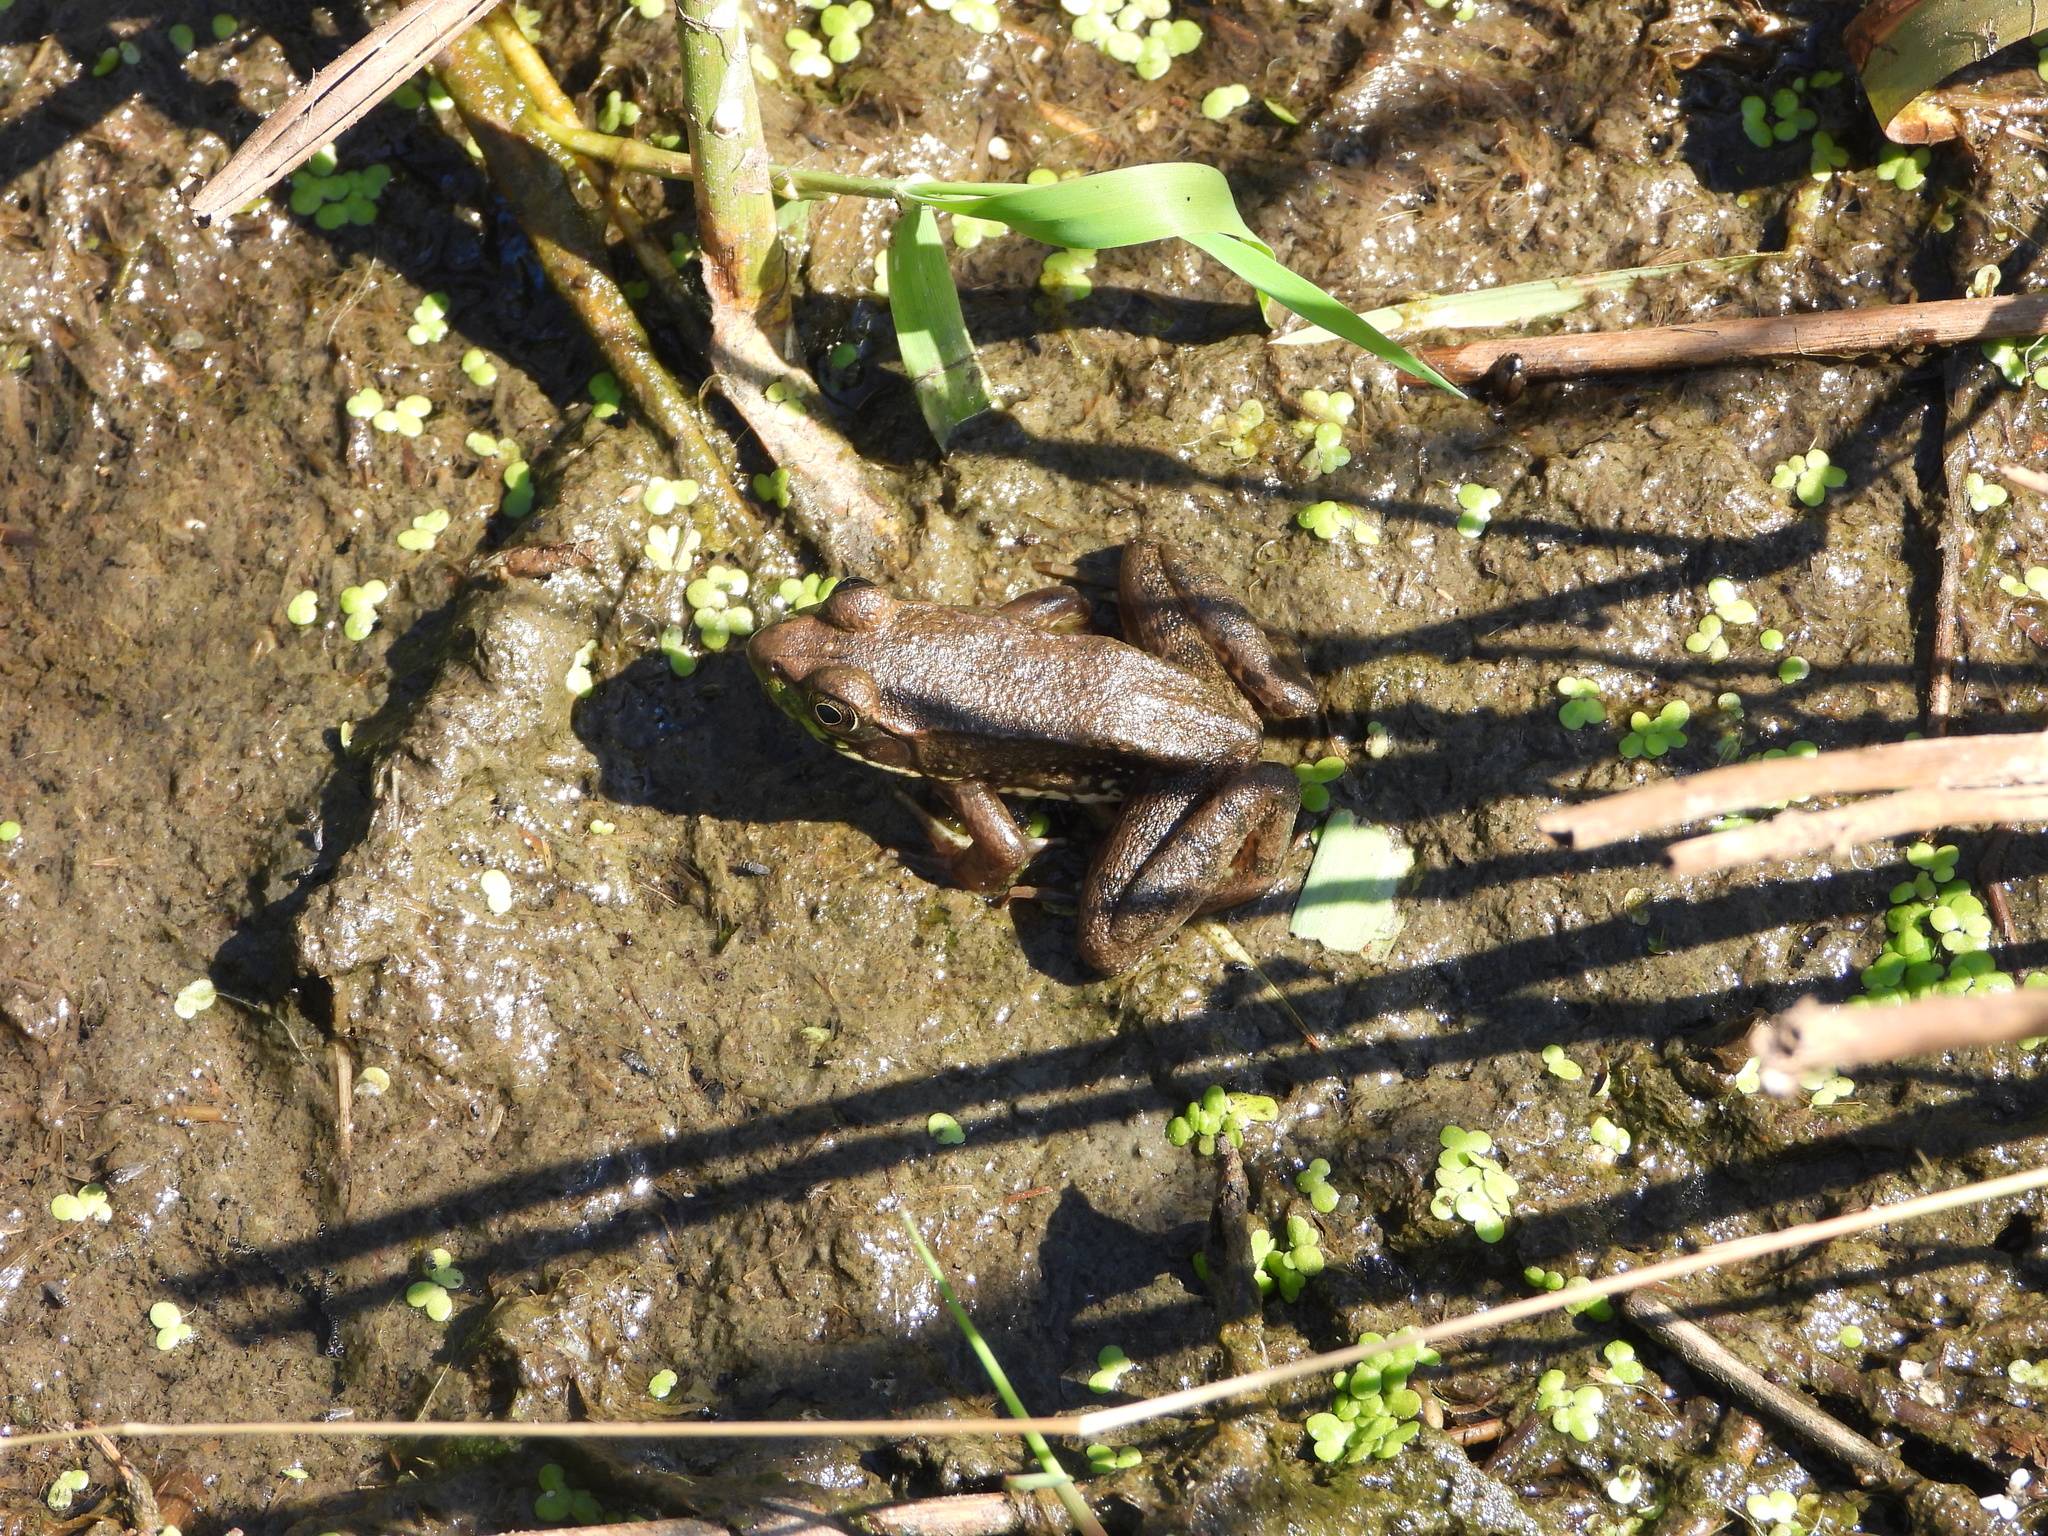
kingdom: Animalia
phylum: Chordata
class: Amphibia
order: Anura
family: Ranidae
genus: Lithobates
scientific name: Lithobates clamitans
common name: Green frog
